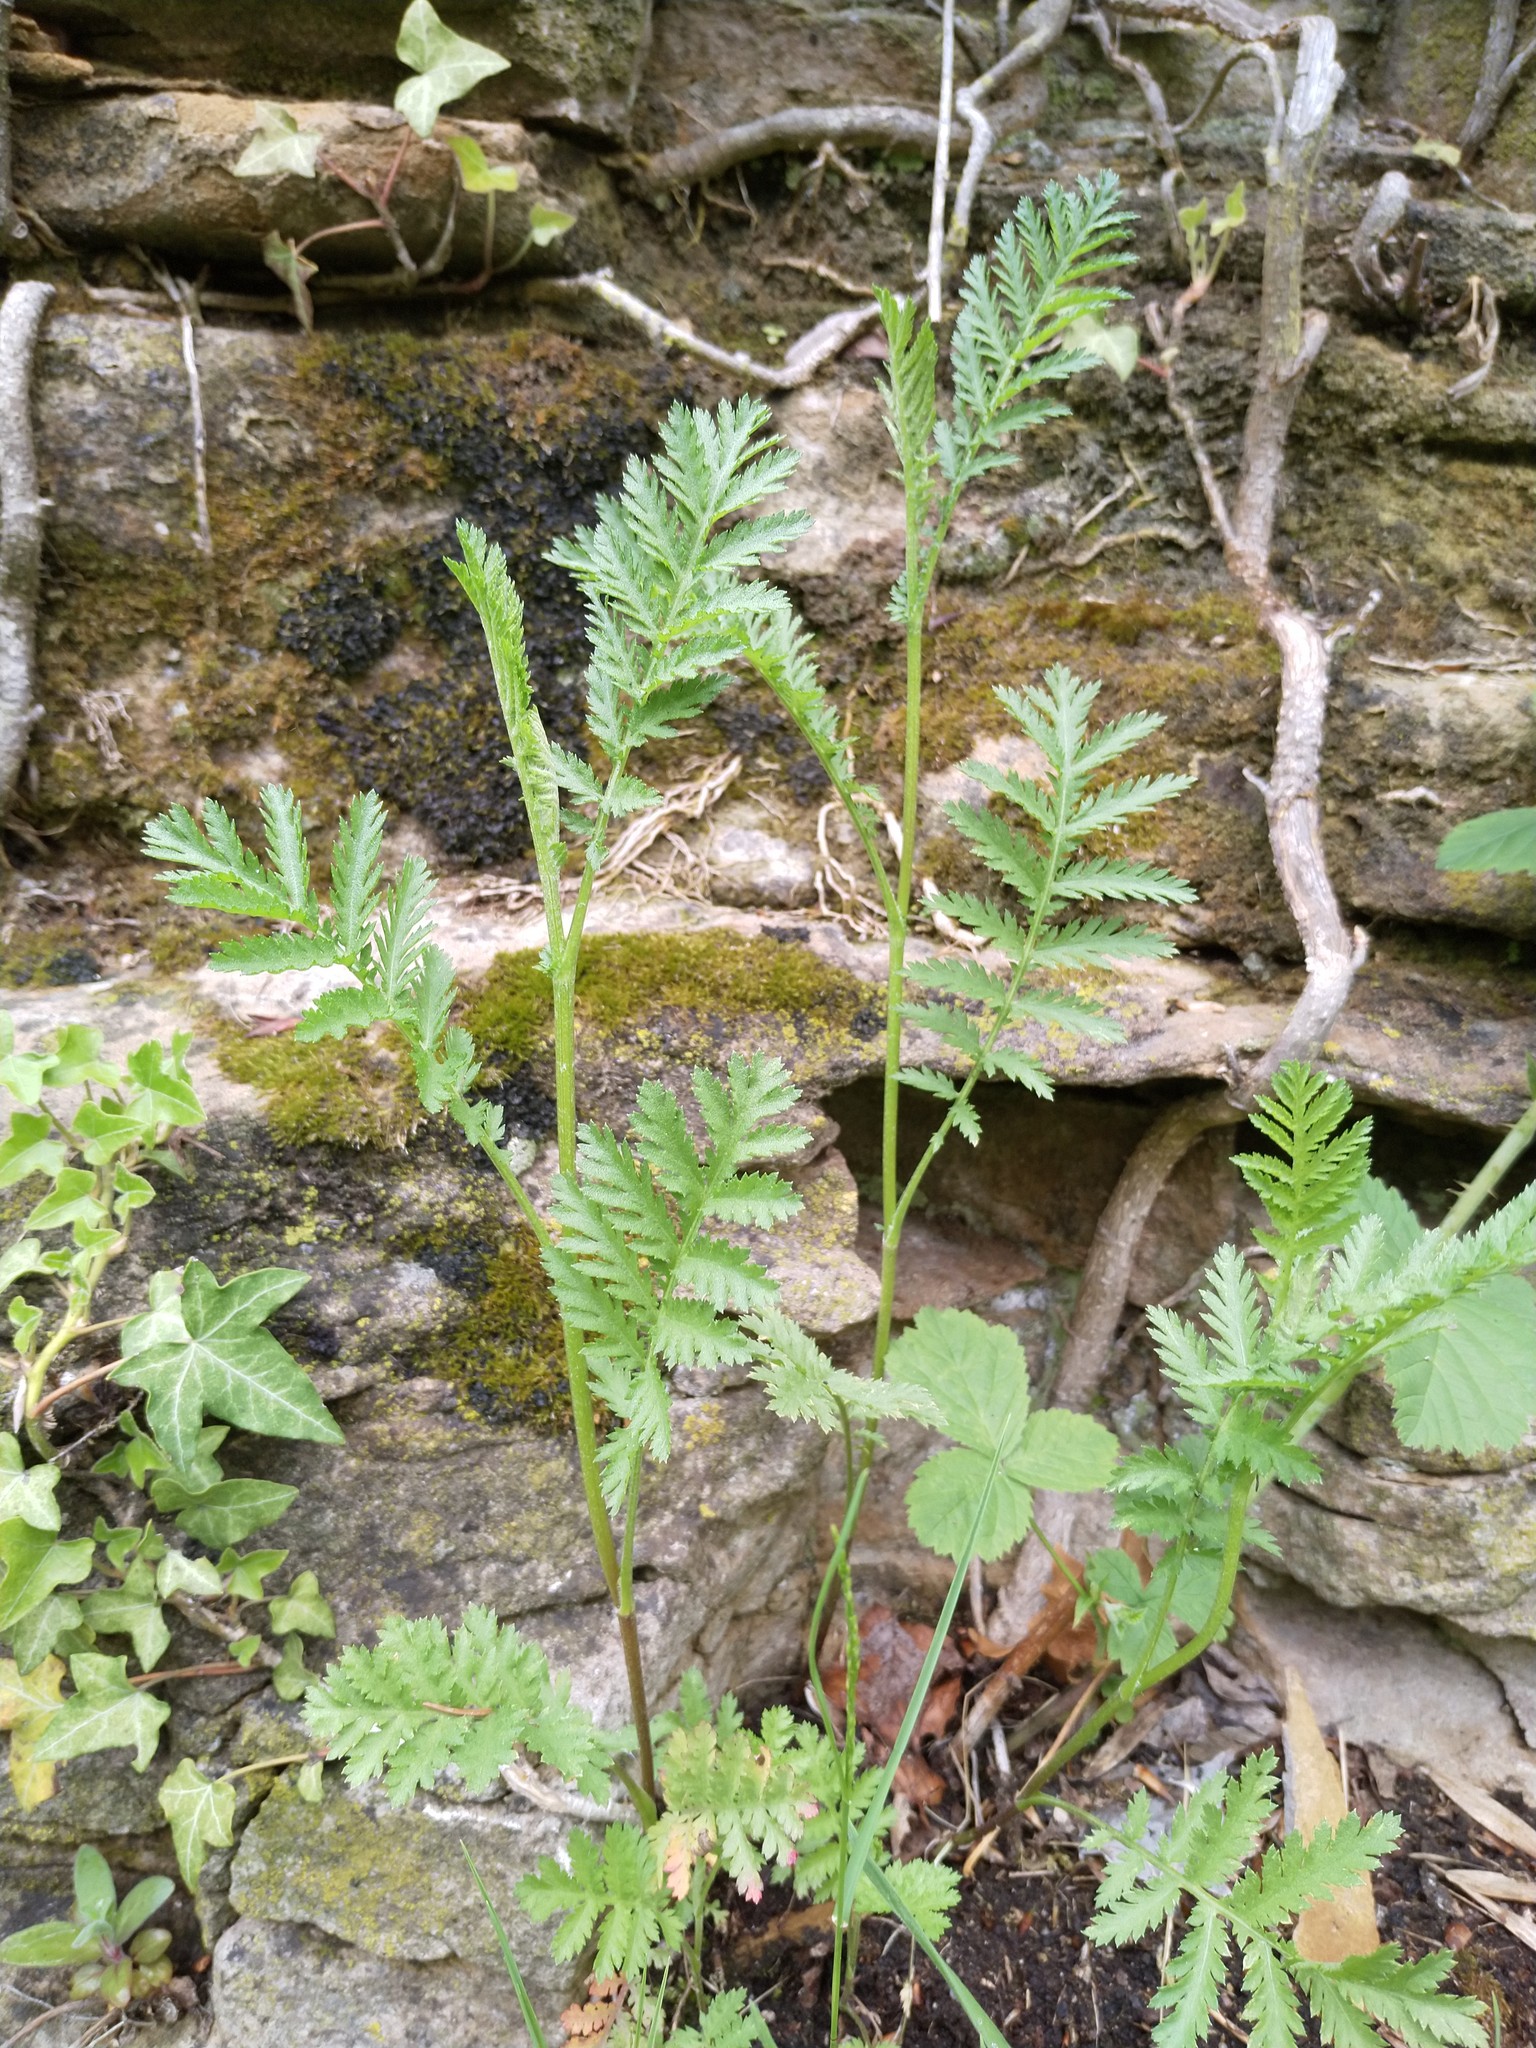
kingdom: Plantae
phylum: Tracheophyta
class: Magnoliopsida
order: Asterales
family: Asteraceae
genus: Tanacetum
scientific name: Tanacetum vulgare
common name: Common tansy
